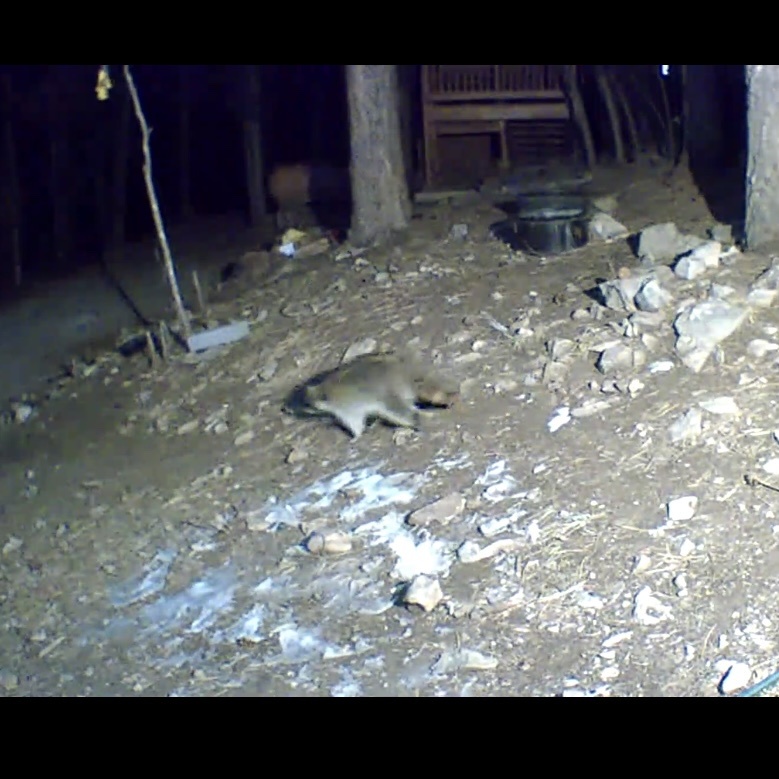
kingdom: Animalia
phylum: Chordata
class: Mammalia
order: Carnivora
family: Procyonidae
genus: Procyon
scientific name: Procyon lotor
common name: Raccoon
